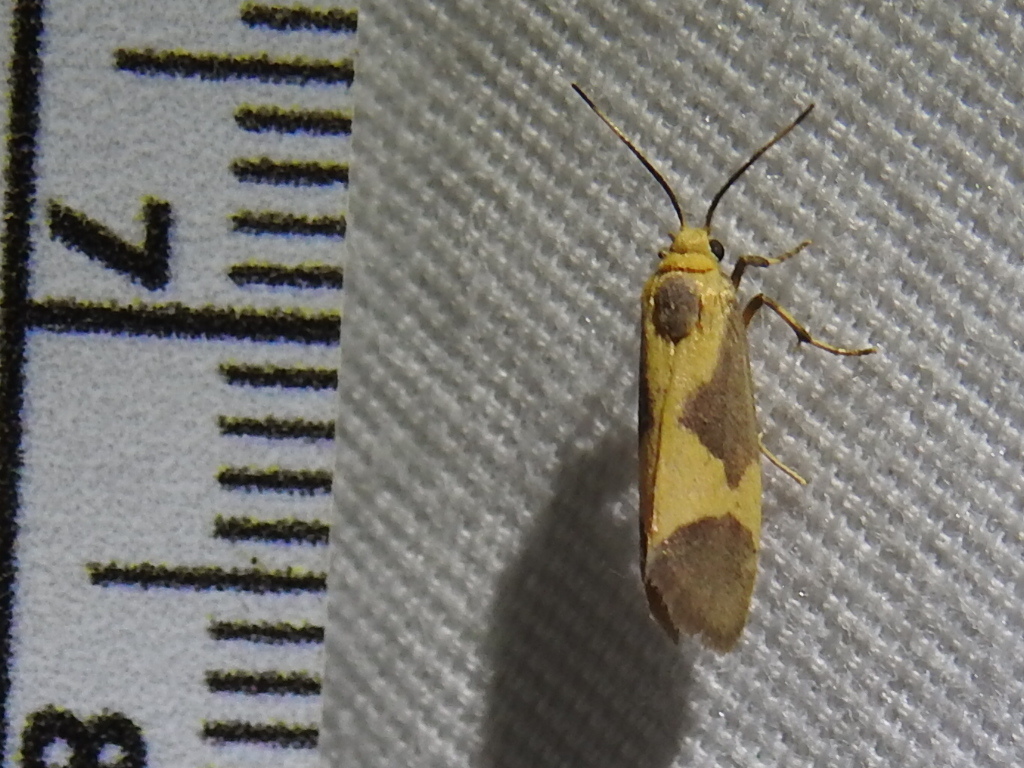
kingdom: Animalia
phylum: Arthropoda
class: Insecta
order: Lepidoptera
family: Erebidae
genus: Cisthene
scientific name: Cisthene unifascia
